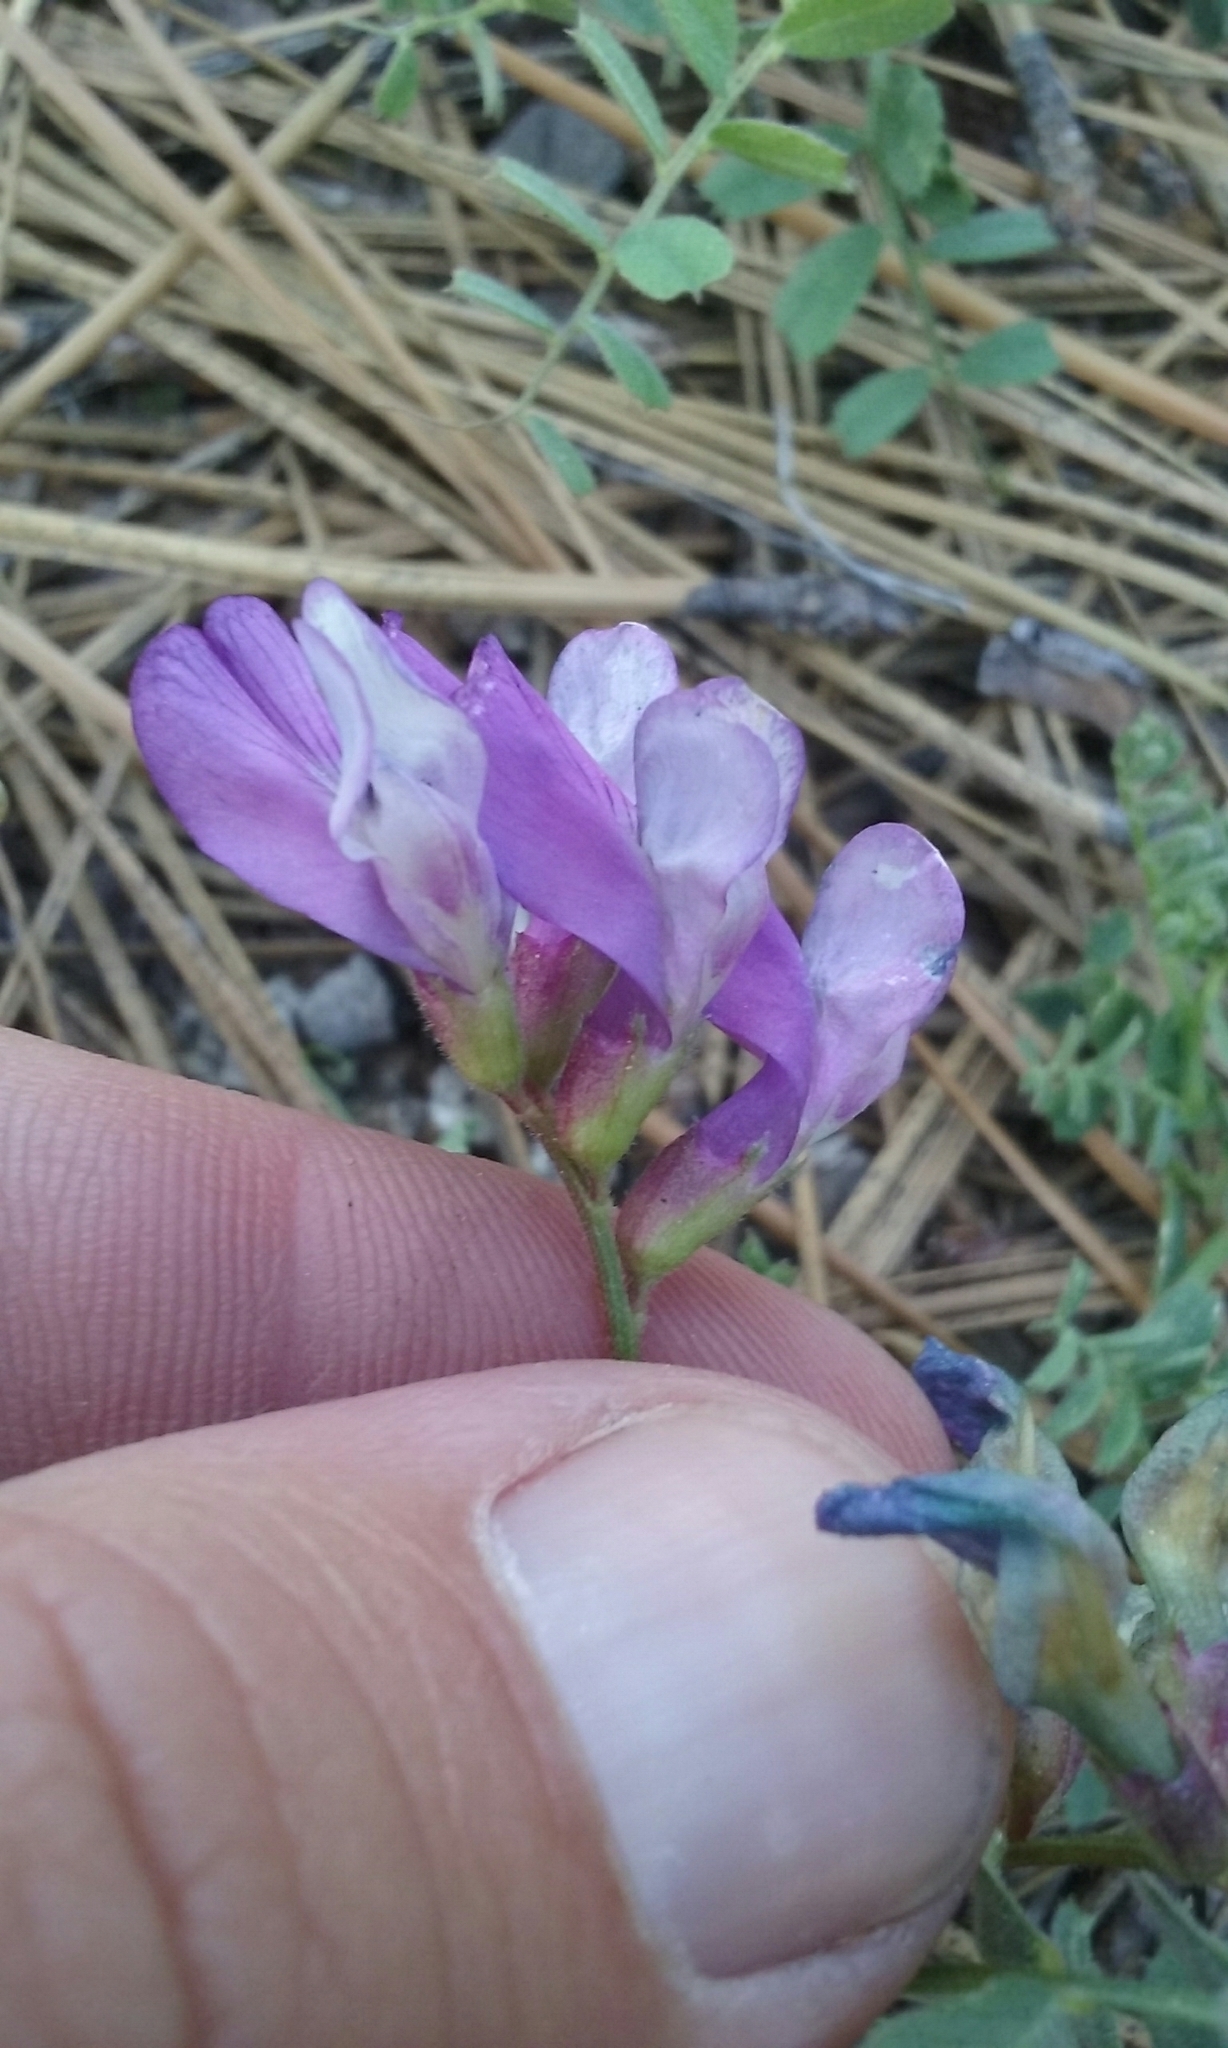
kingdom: Plantae
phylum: Tracheophyta
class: Magnoliopsida
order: Fabales
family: Fabaceae
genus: Vicia
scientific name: Vicia americana
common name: American vetch
